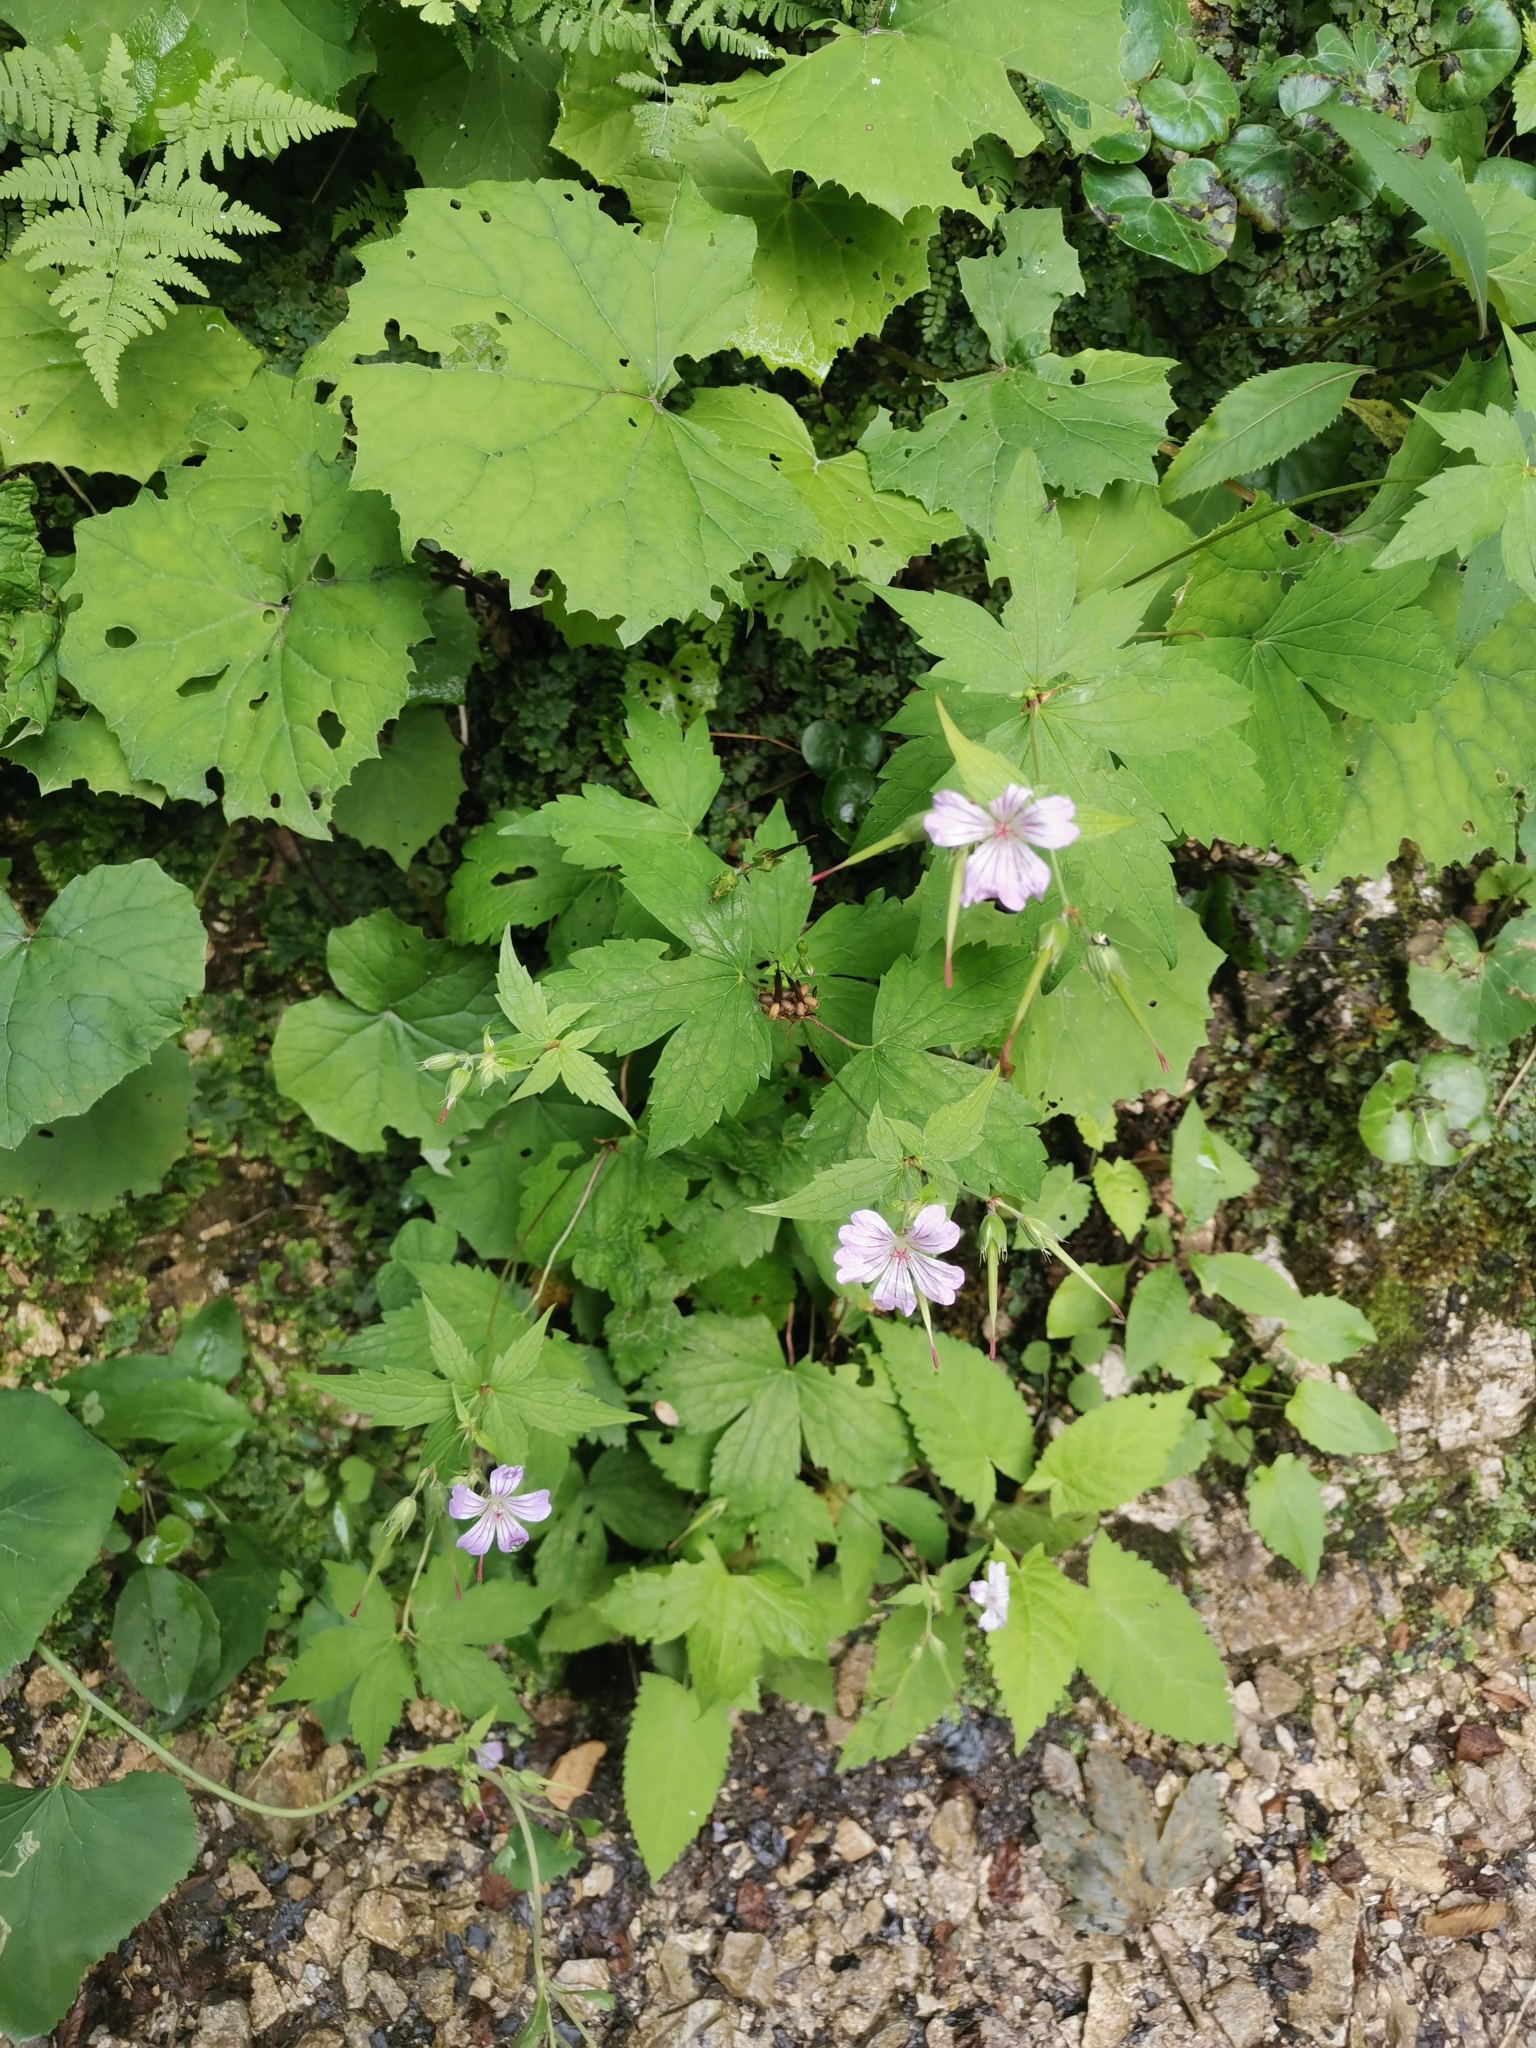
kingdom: Plantae
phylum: Tracheophyta
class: Magnoliopsida
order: Geraniales
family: Geraniaceae
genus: Geranium
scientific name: Geranium nodosum
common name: Knotted crane's-bill
